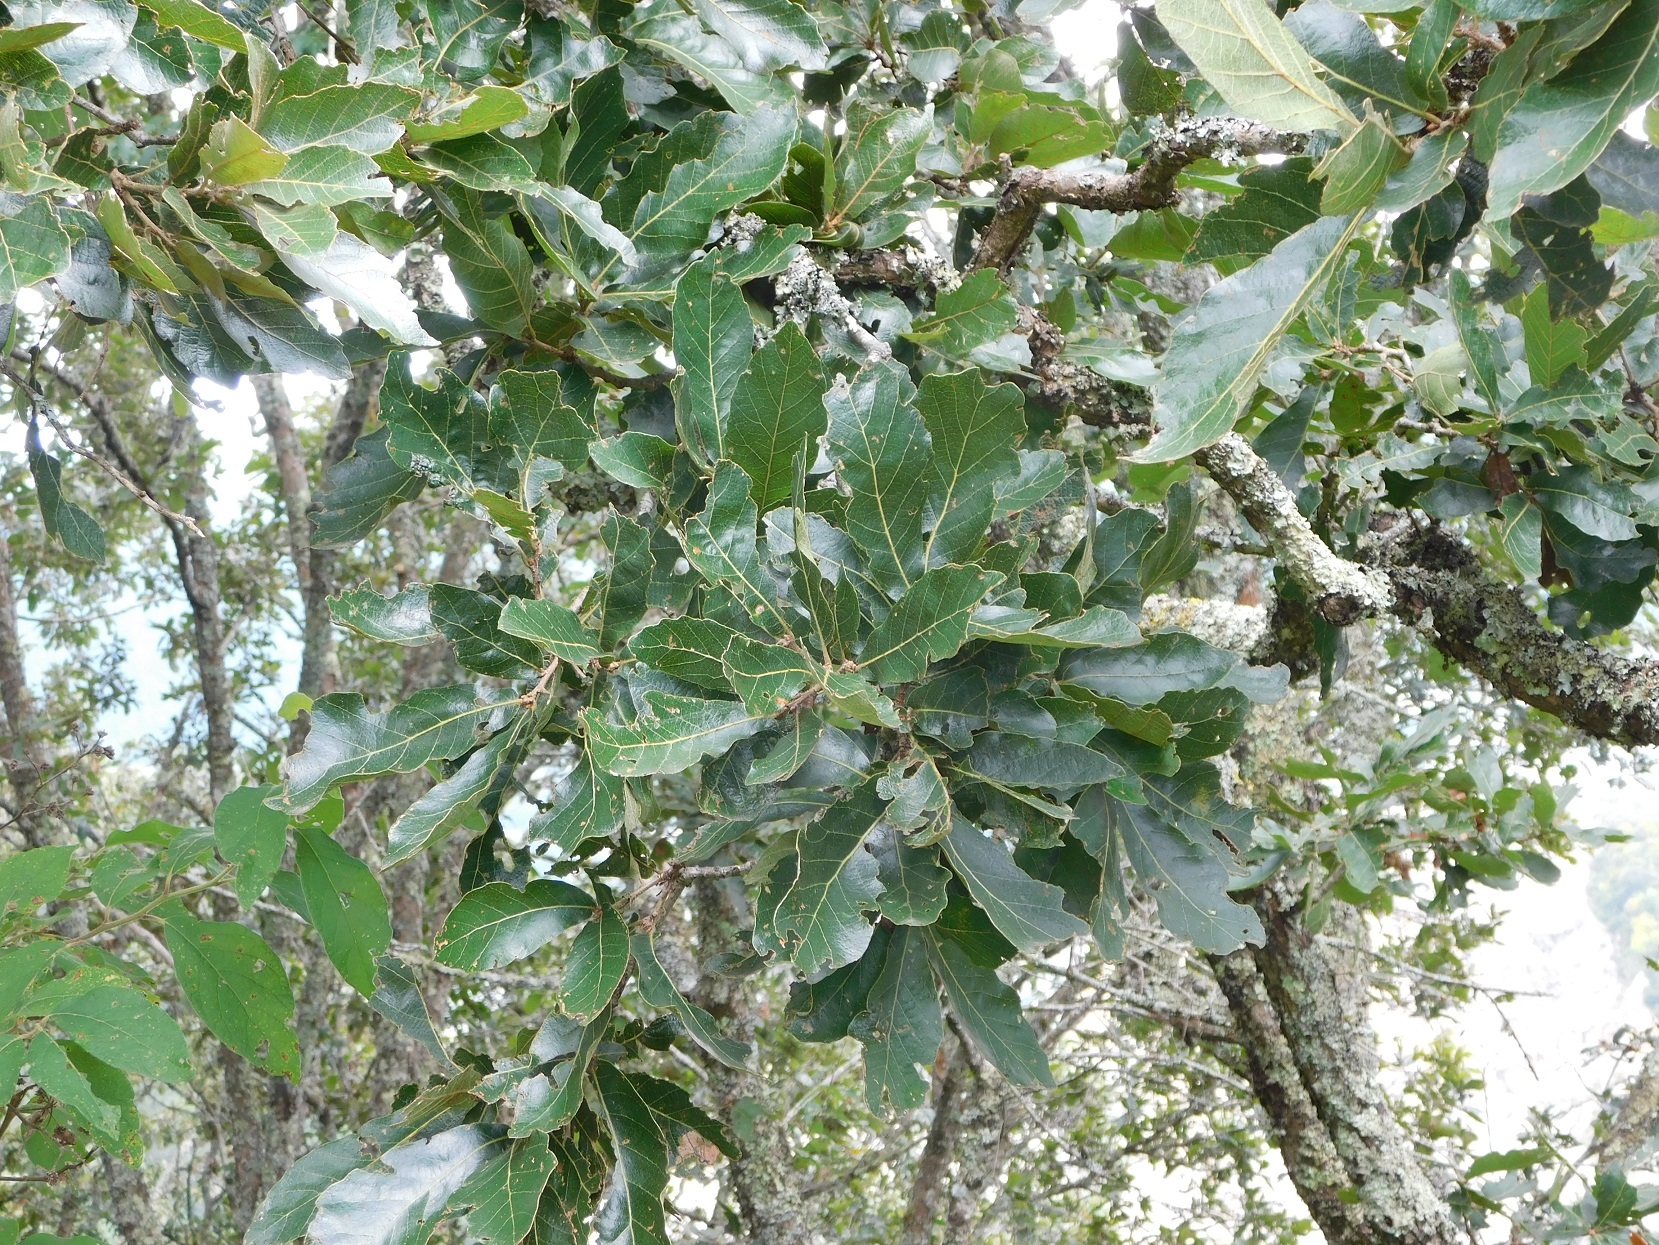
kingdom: Plantae
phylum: Tracheophyta
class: Magnoliopsida
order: Fagales
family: Fagaceae
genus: Quercus
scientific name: Quercus segoviensis
